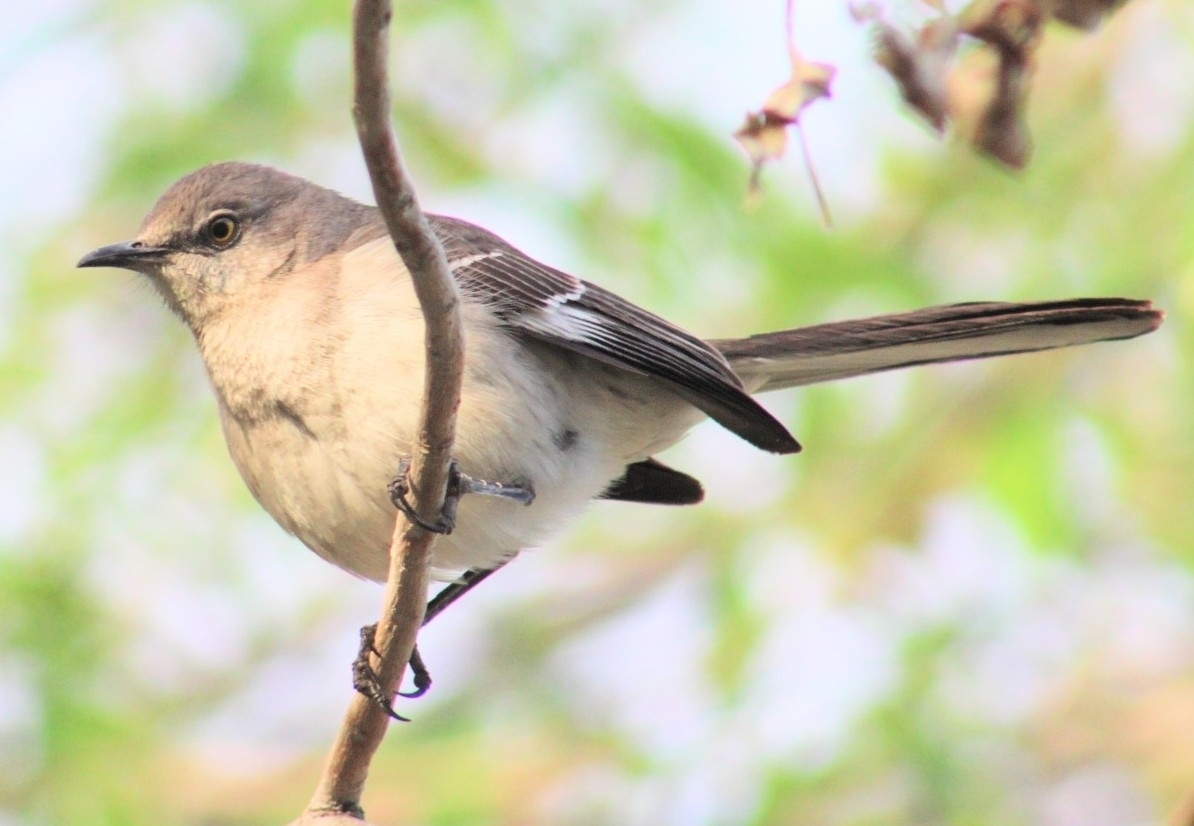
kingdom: Animalia
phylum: Chordata
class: Aves
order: Passeriformes
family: Mimidae
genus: Mimus
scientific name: Mimus polyglottos
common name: Northern mockingbird
